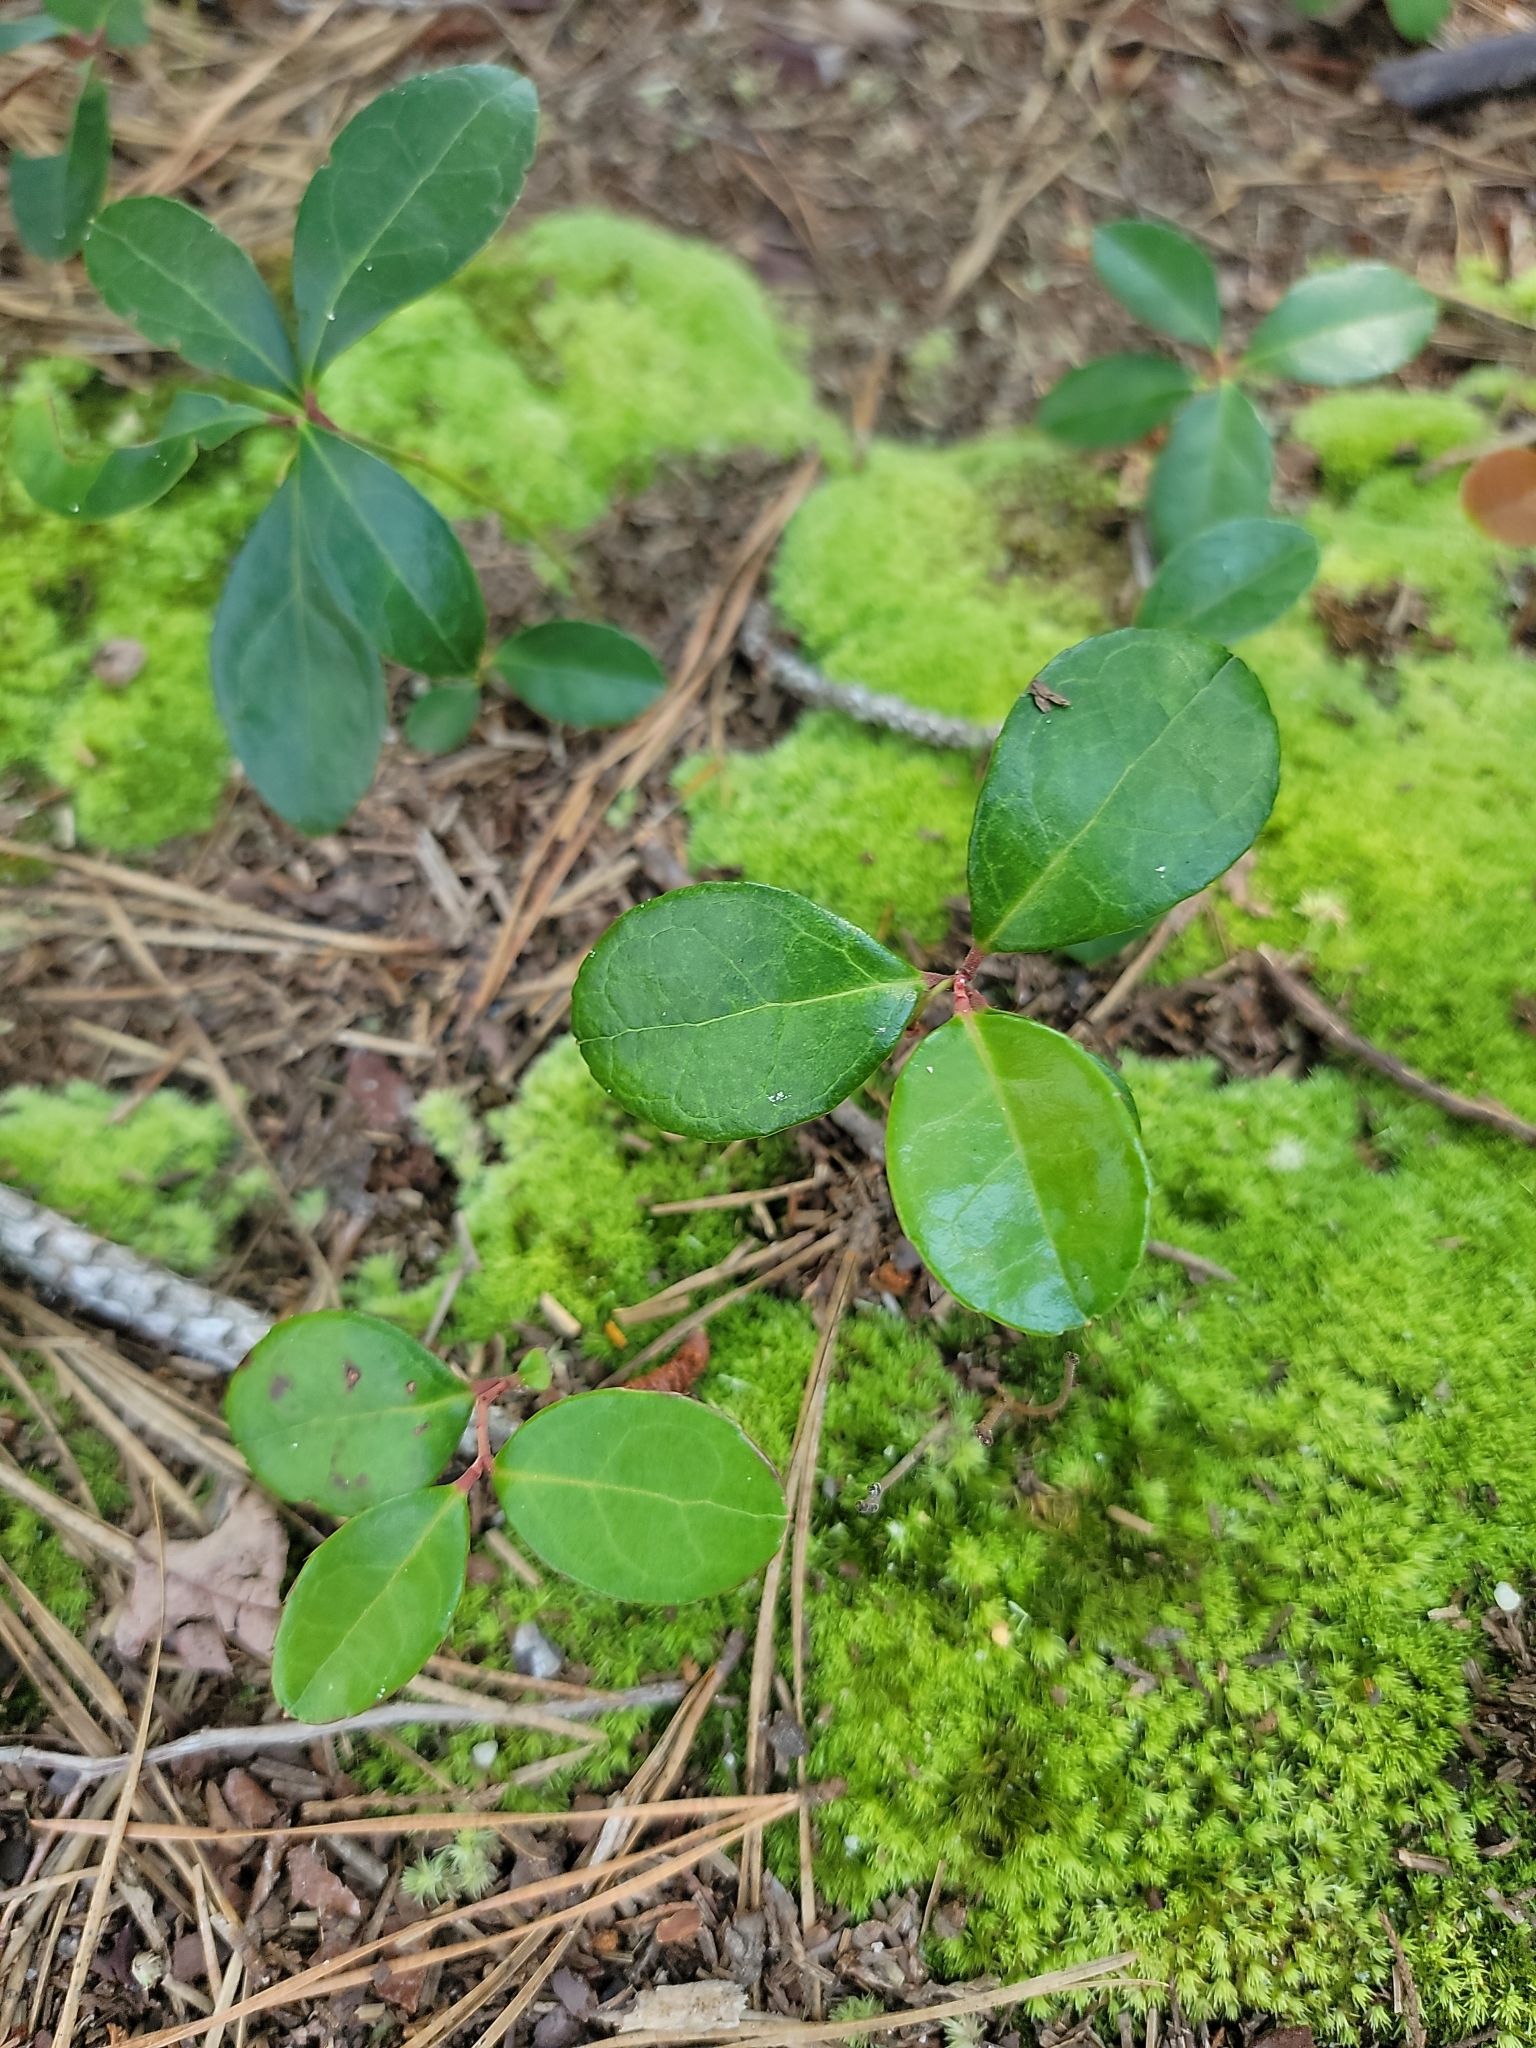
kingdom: Plantae
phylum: Tracheophyta
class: Magnoliopsida
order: Ericales
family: Ericaceae
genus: Gaultheria
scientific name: Gaultheria procumbens
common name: Checkerberry
